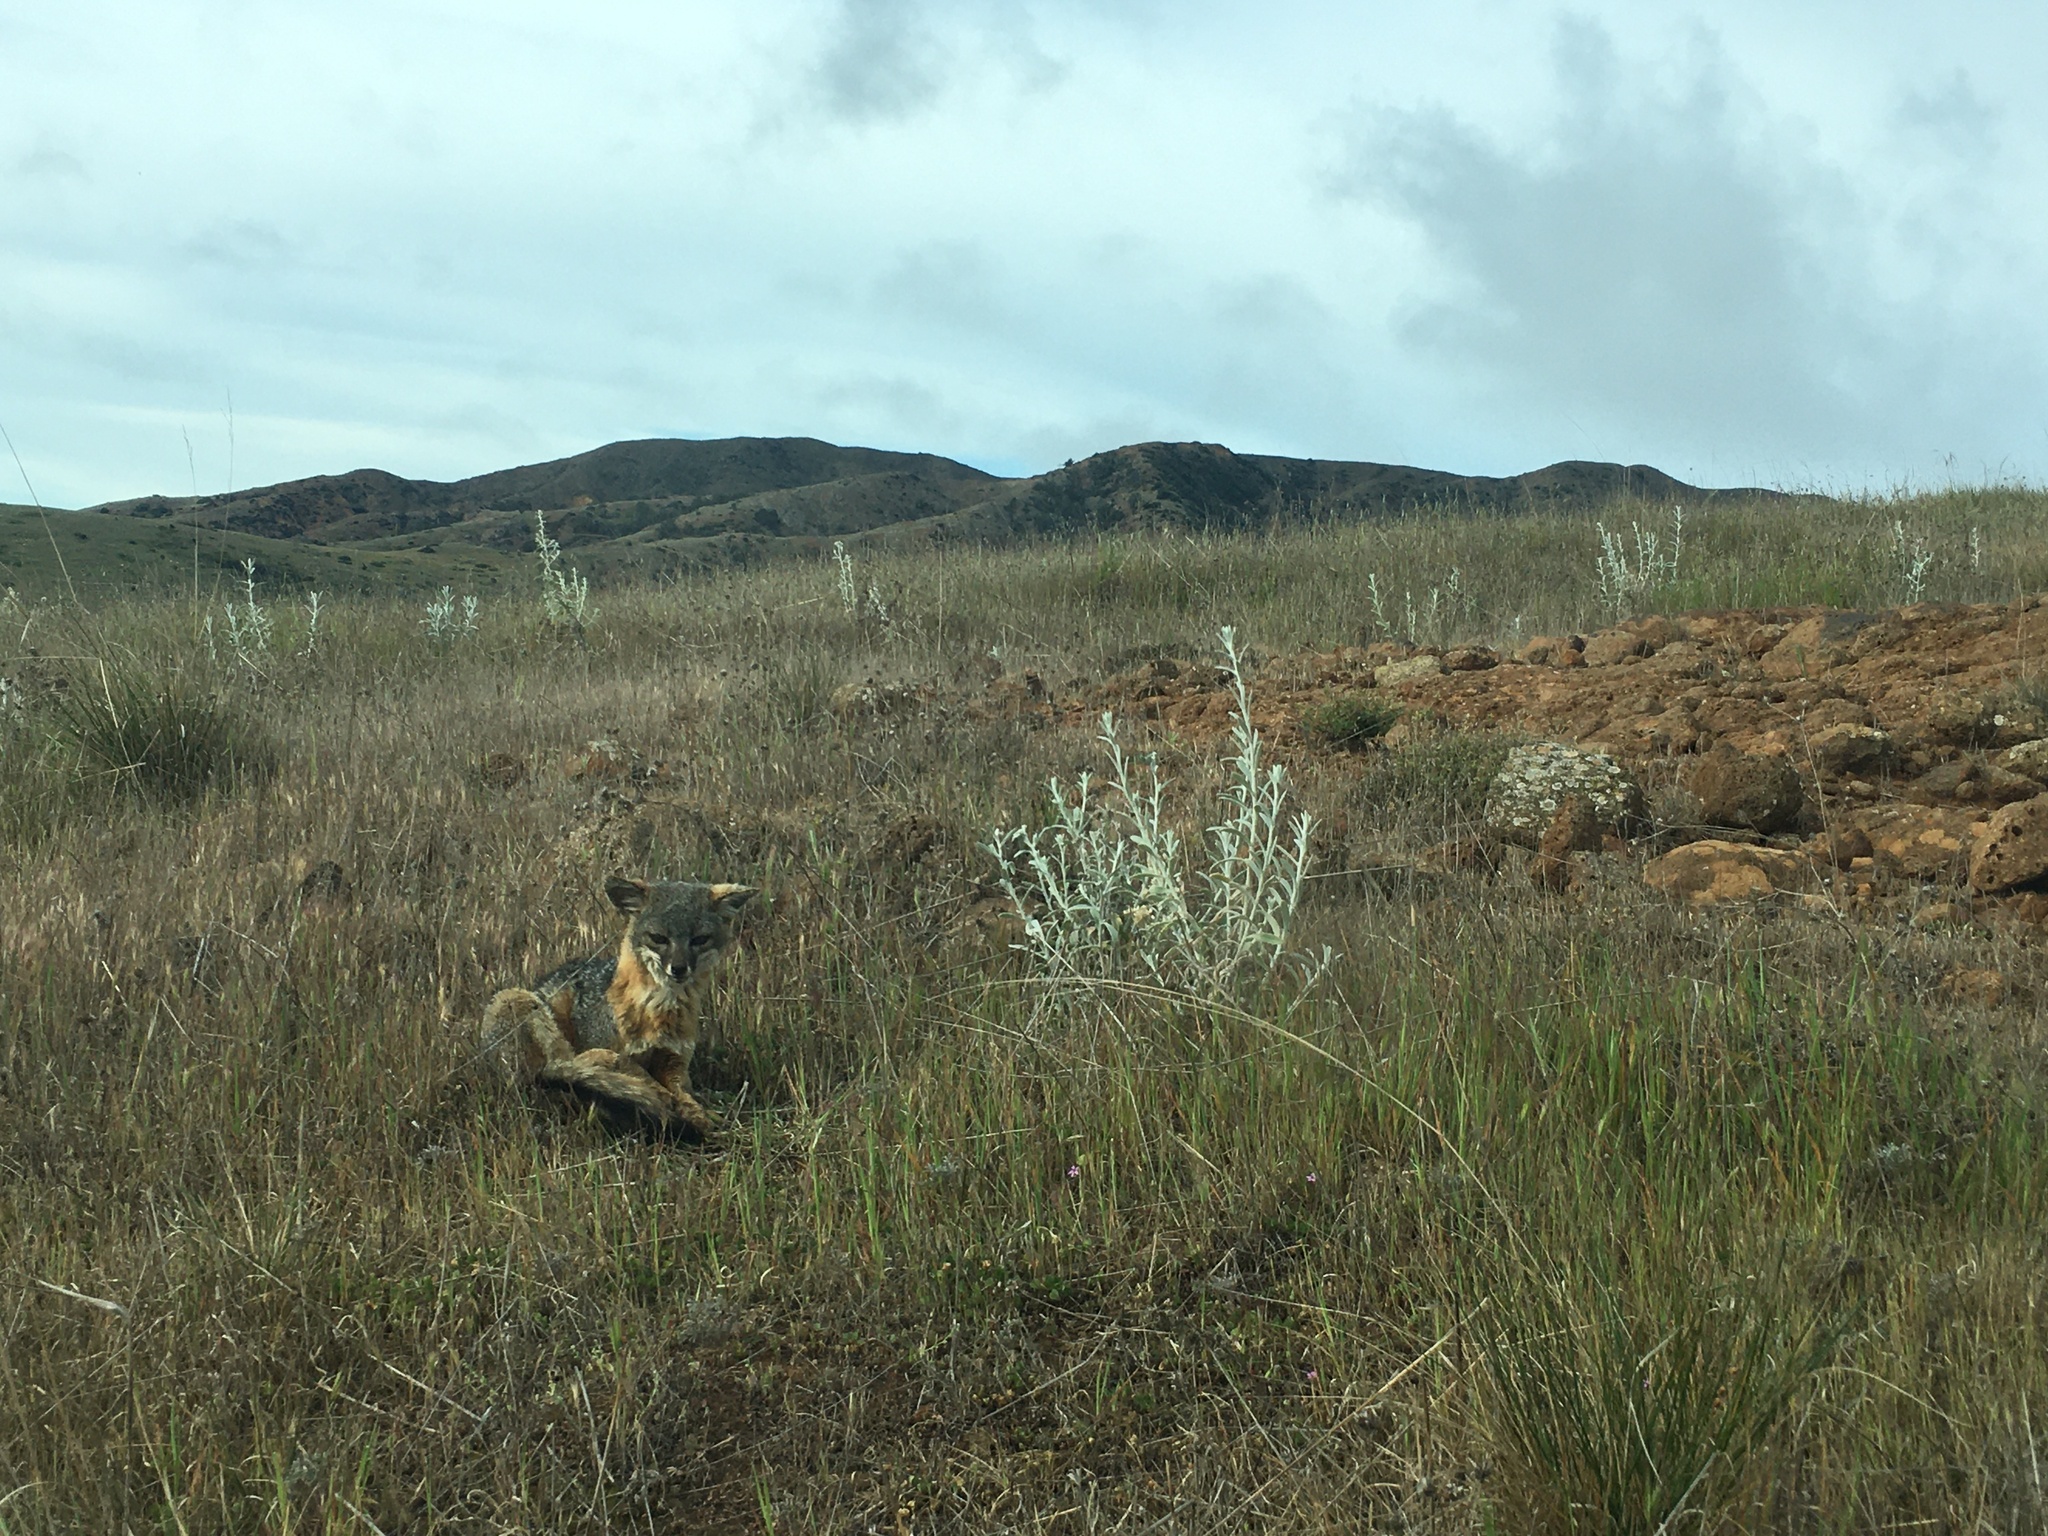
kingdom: Animalia
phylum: Chordata
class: Mammalia
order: Carnivora
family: Canidae
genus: Urocyon
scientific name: Urocyon littoralis
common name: Island gray fox
